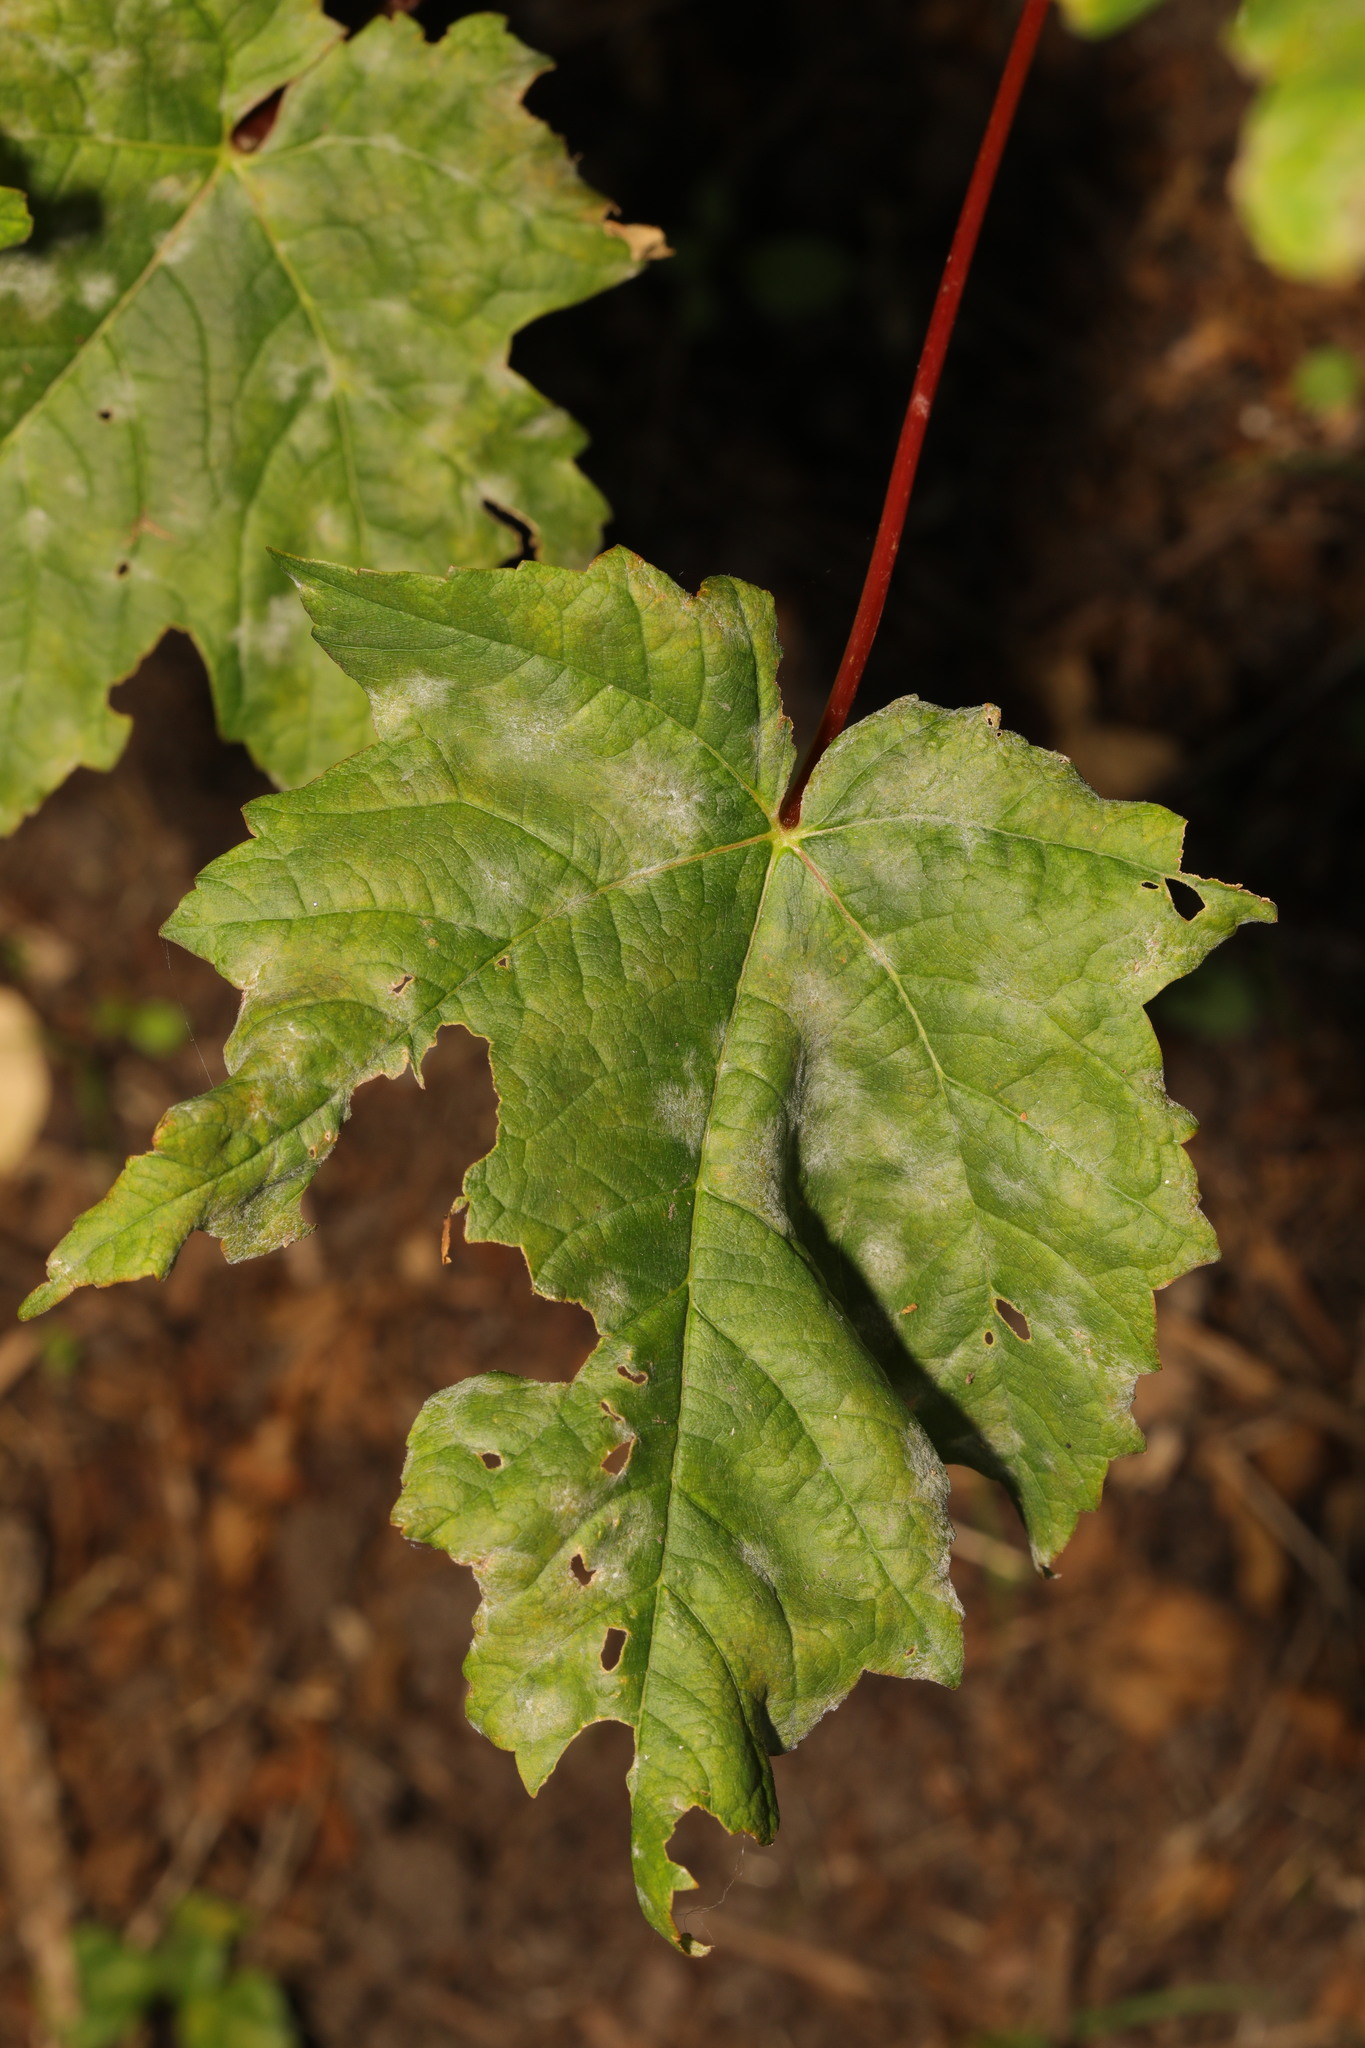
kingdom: Plantae
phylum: Tracheophyta
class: Magnoliopsida
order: Sapindales
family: Sapindaceae
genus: Acer
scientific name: Acer pseudoplatanus
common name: Sycamore
